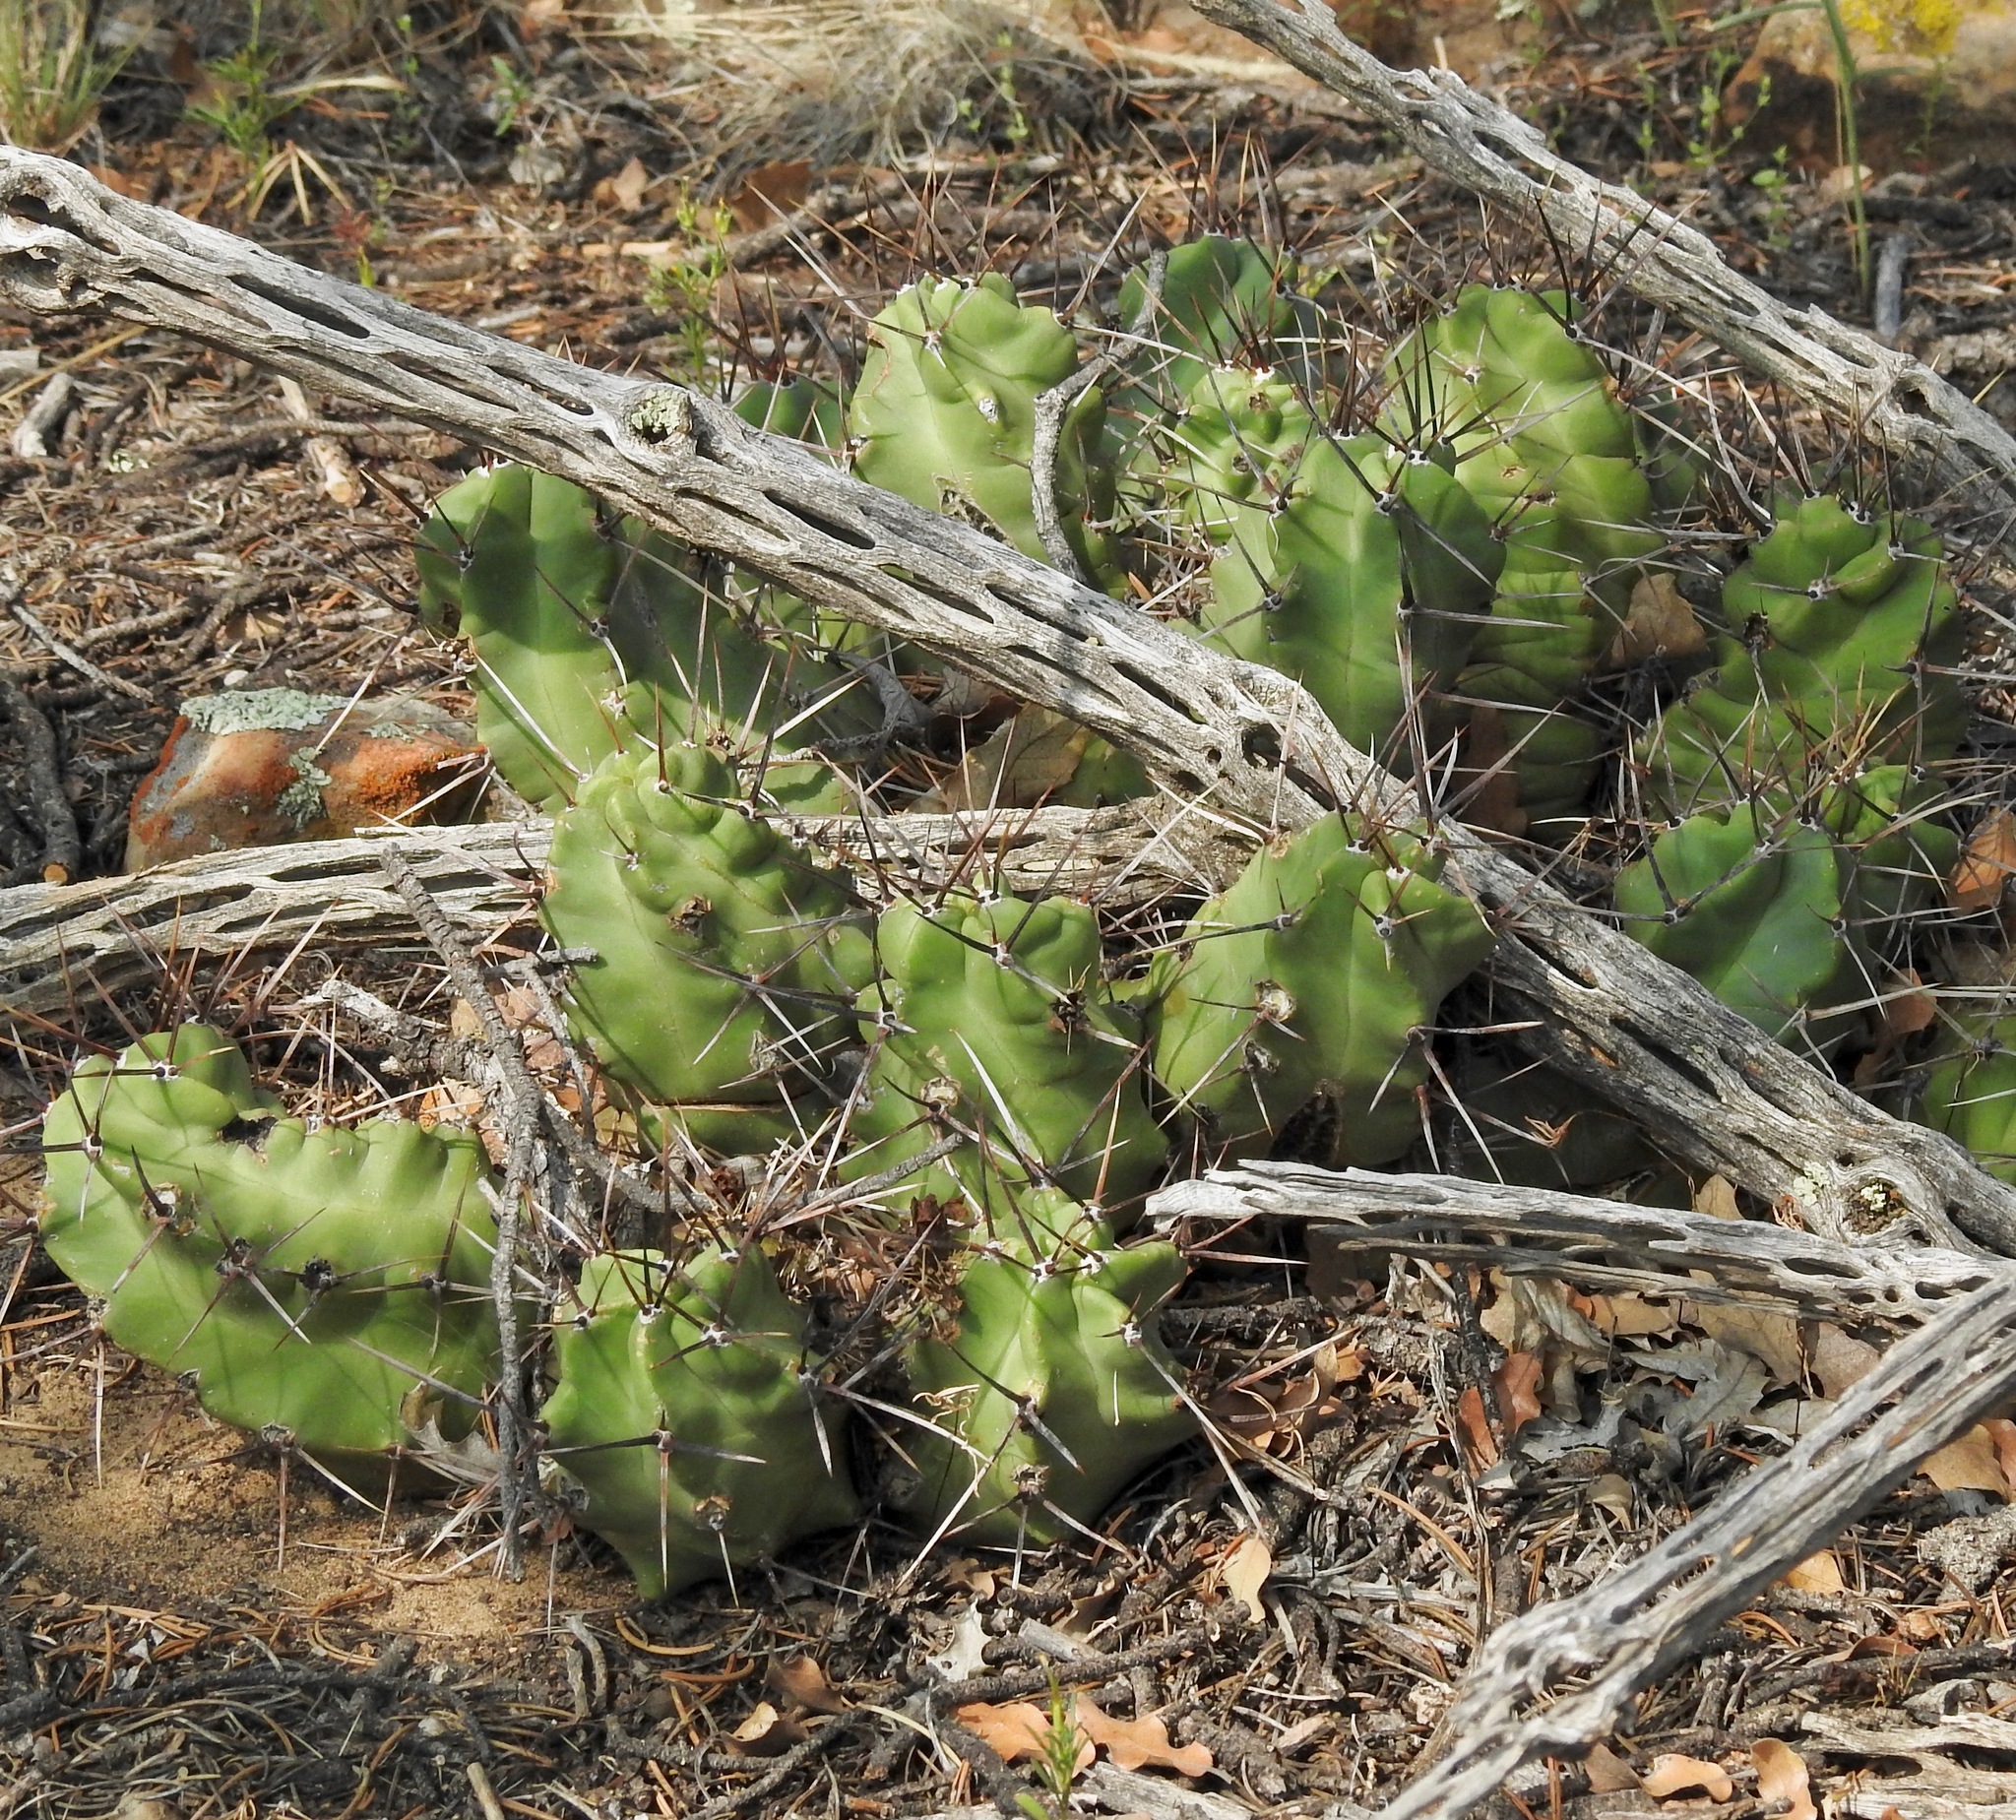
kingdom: Plantae
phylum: Tracheophyta
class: Magnoliopsida
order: Caryophyllales
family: Cactaceae
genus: Echinocereus
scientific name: Echinocereus triglochidiatus
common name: Claretcup hedgehog
